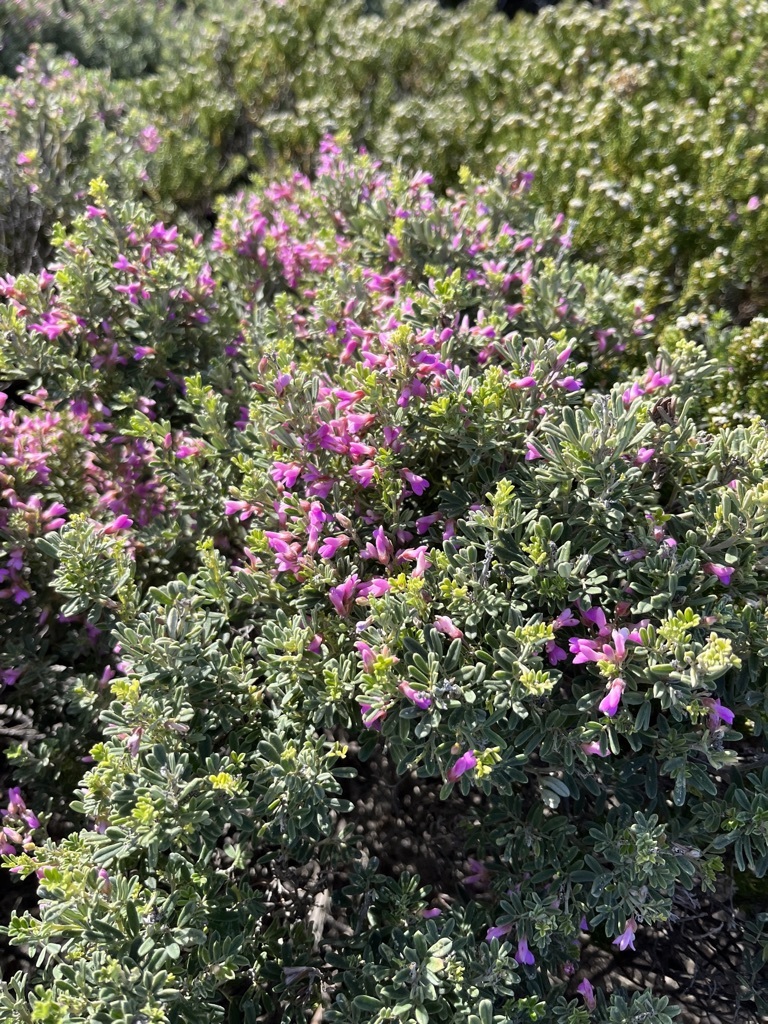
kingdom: Plantae
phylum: Tracheophyta
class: Magnoliopsida
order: Fabales
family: Fabaceae
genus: Indigofera
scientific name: Indigofera brachystachya
